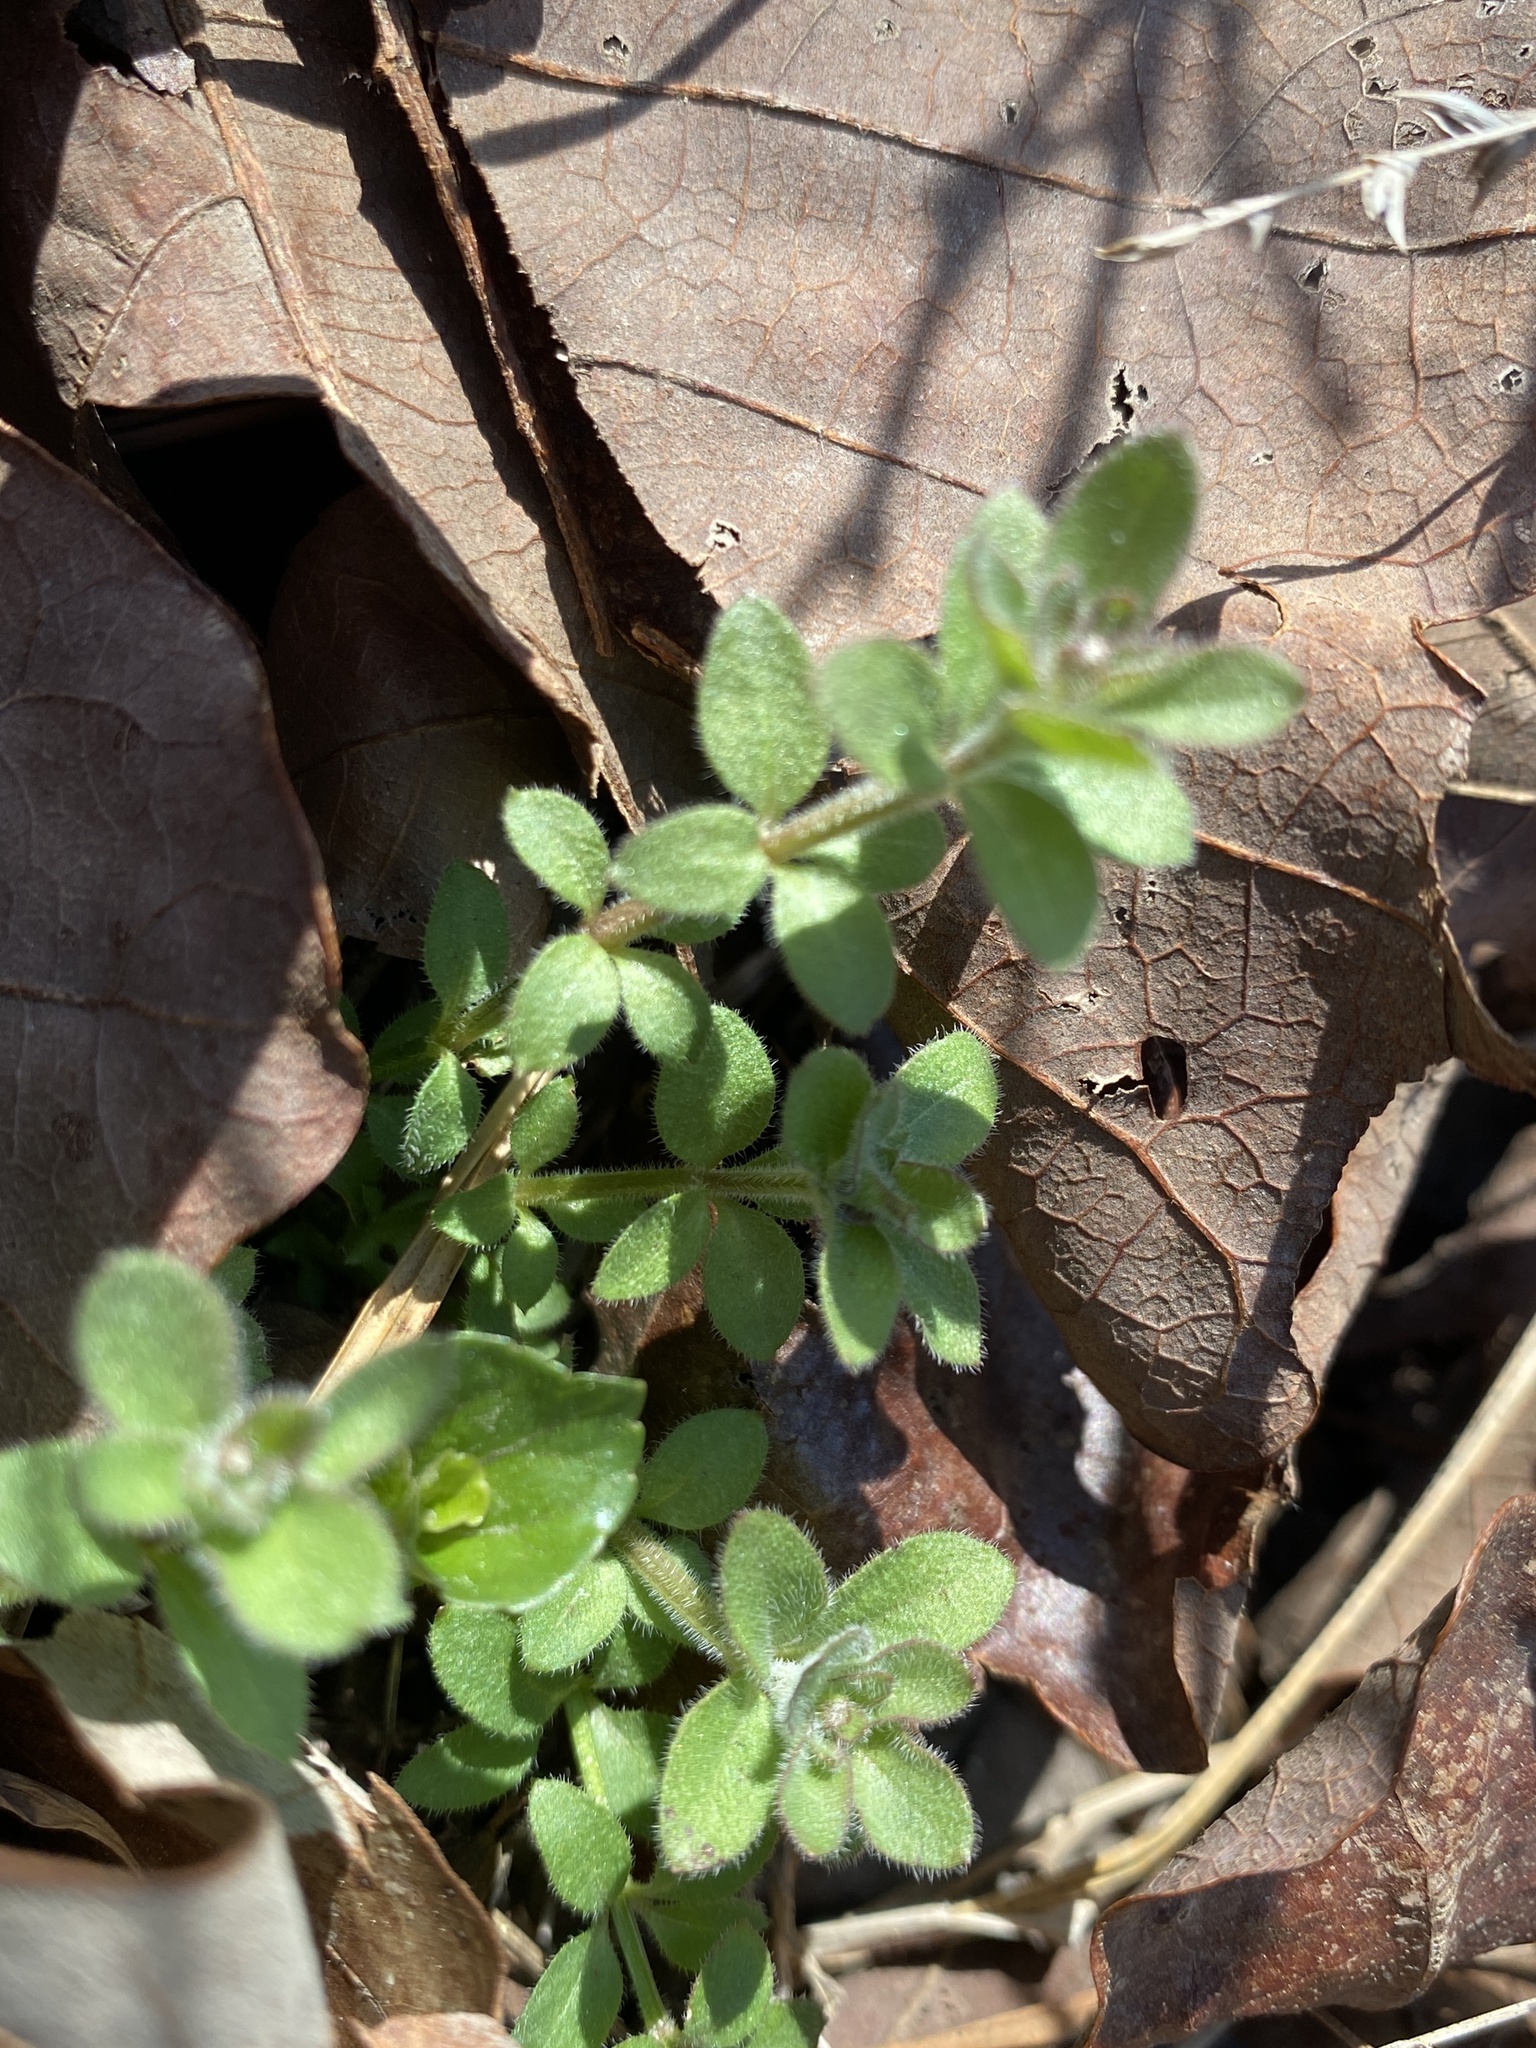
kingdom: Plantae
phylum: Tracheophyta
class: Magnoliopsida
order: Gentianales
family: Rubiaceae
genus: Galium
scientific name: Galium pilosum
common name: Hairy bedstraw
